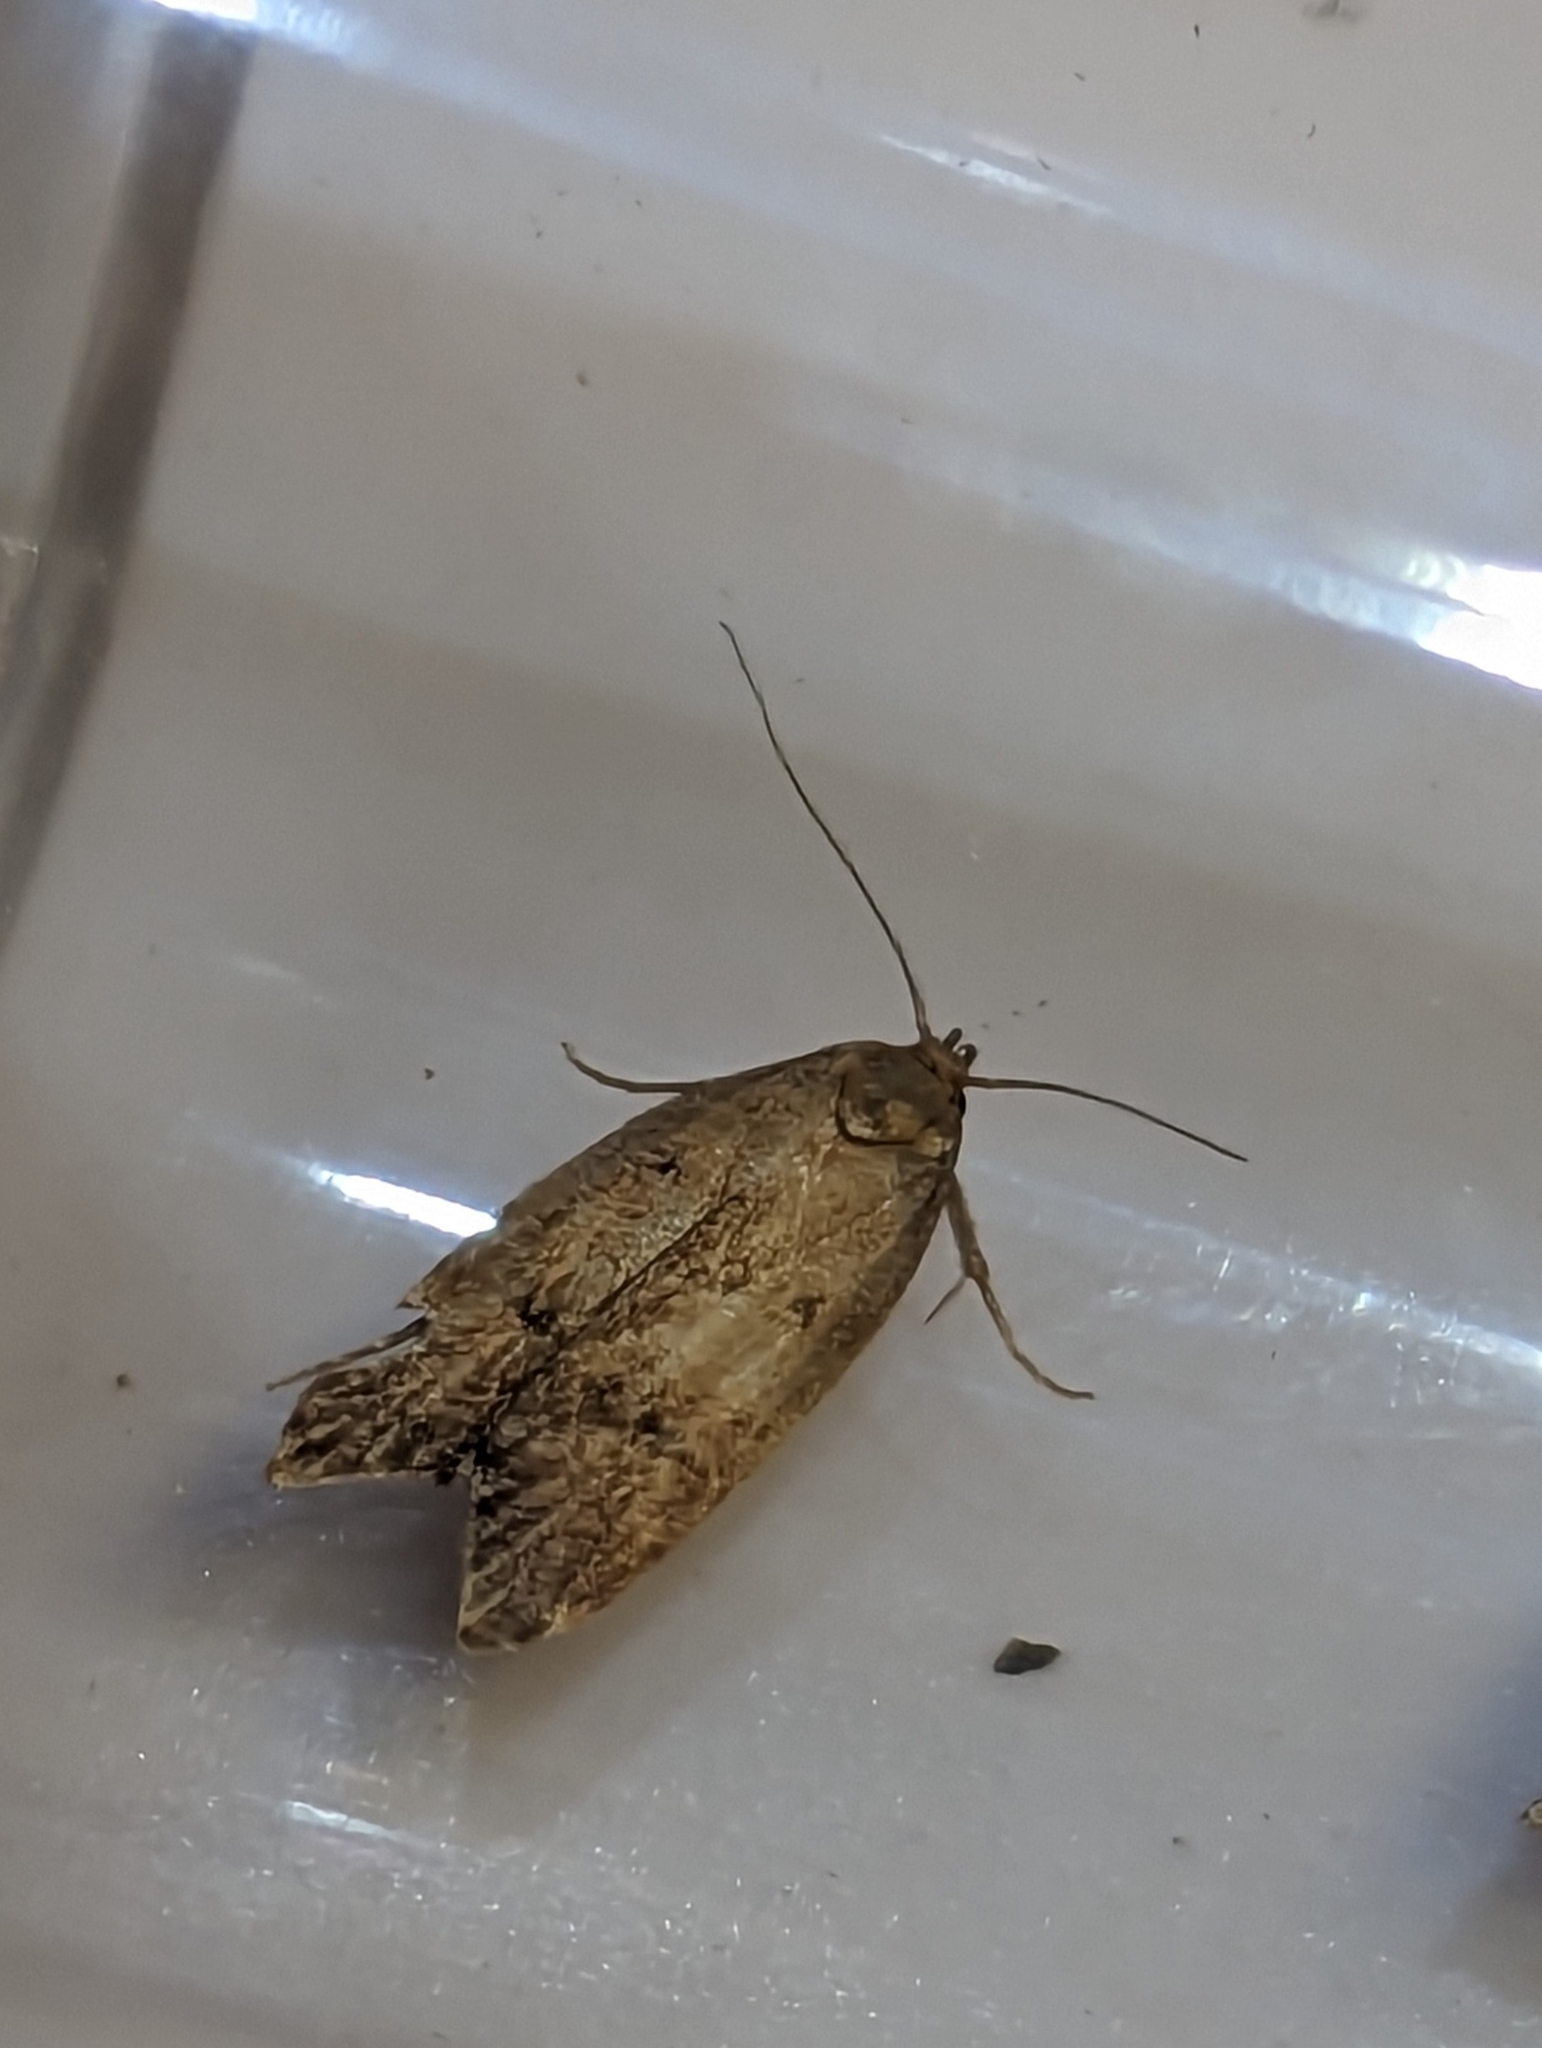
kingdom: Animalia
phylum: Arthropoda
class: Insecta
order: Lepidoptera
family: Oecophoridae
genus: Tachystola
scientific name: Tachystola acroxantha
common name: Ruddy streak
